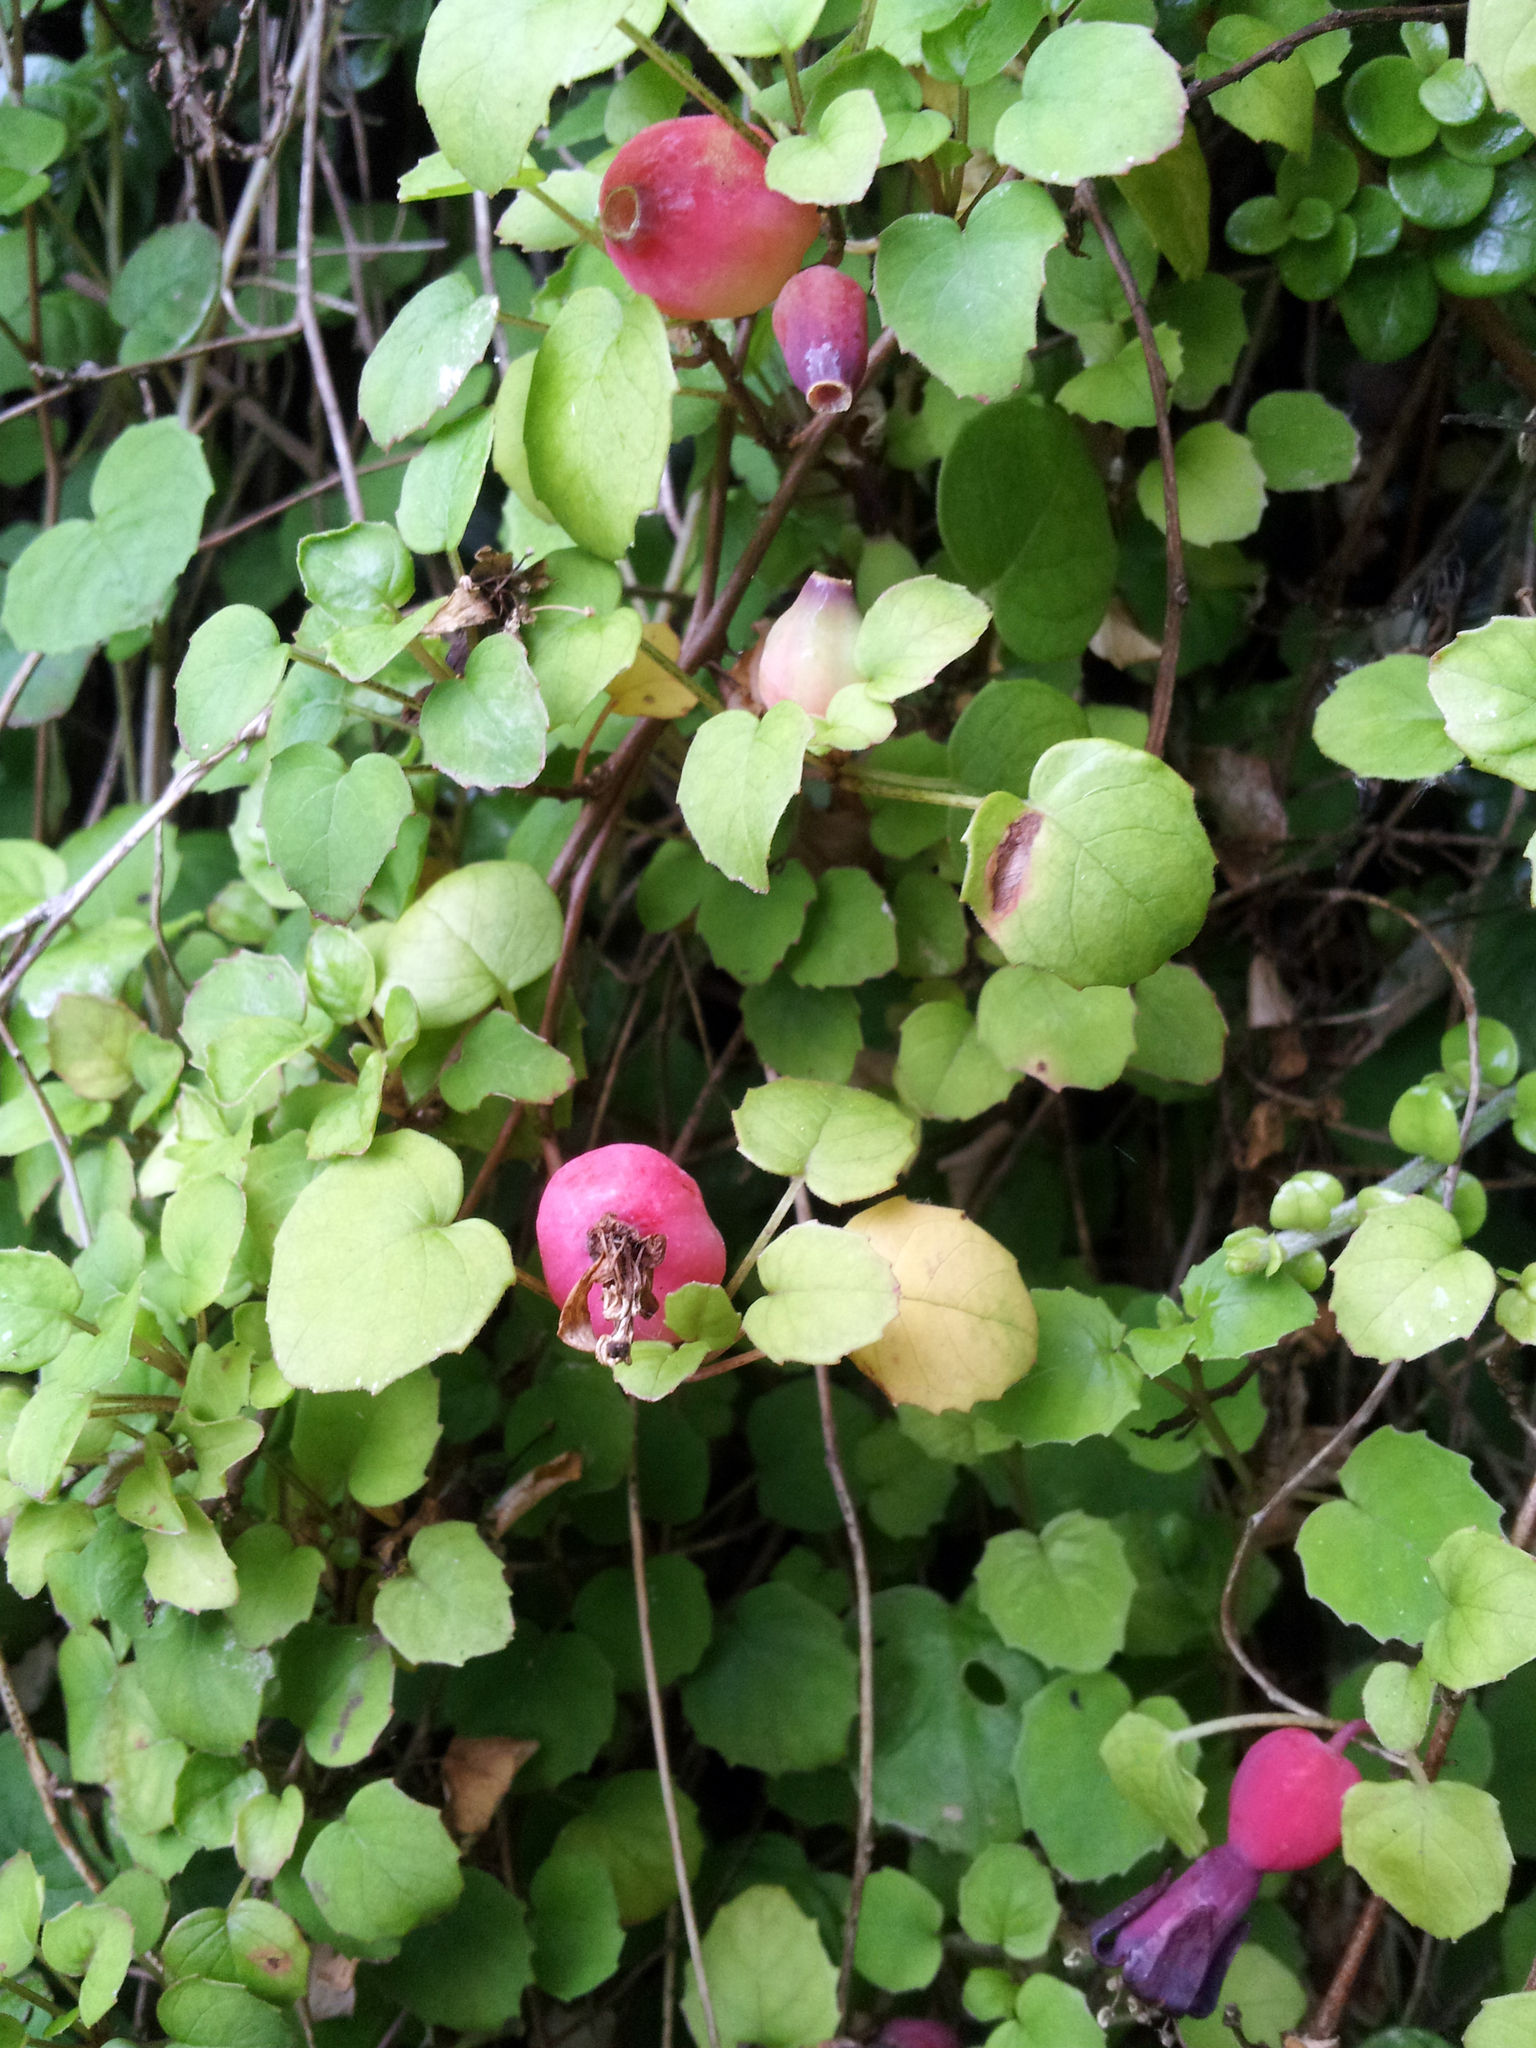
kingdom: Plantae
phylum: Tracheophyta
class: Magnoliopsida
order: Myrtales
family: Onagraceae
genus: Fuchsia
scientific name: Fuchsia procumbens
